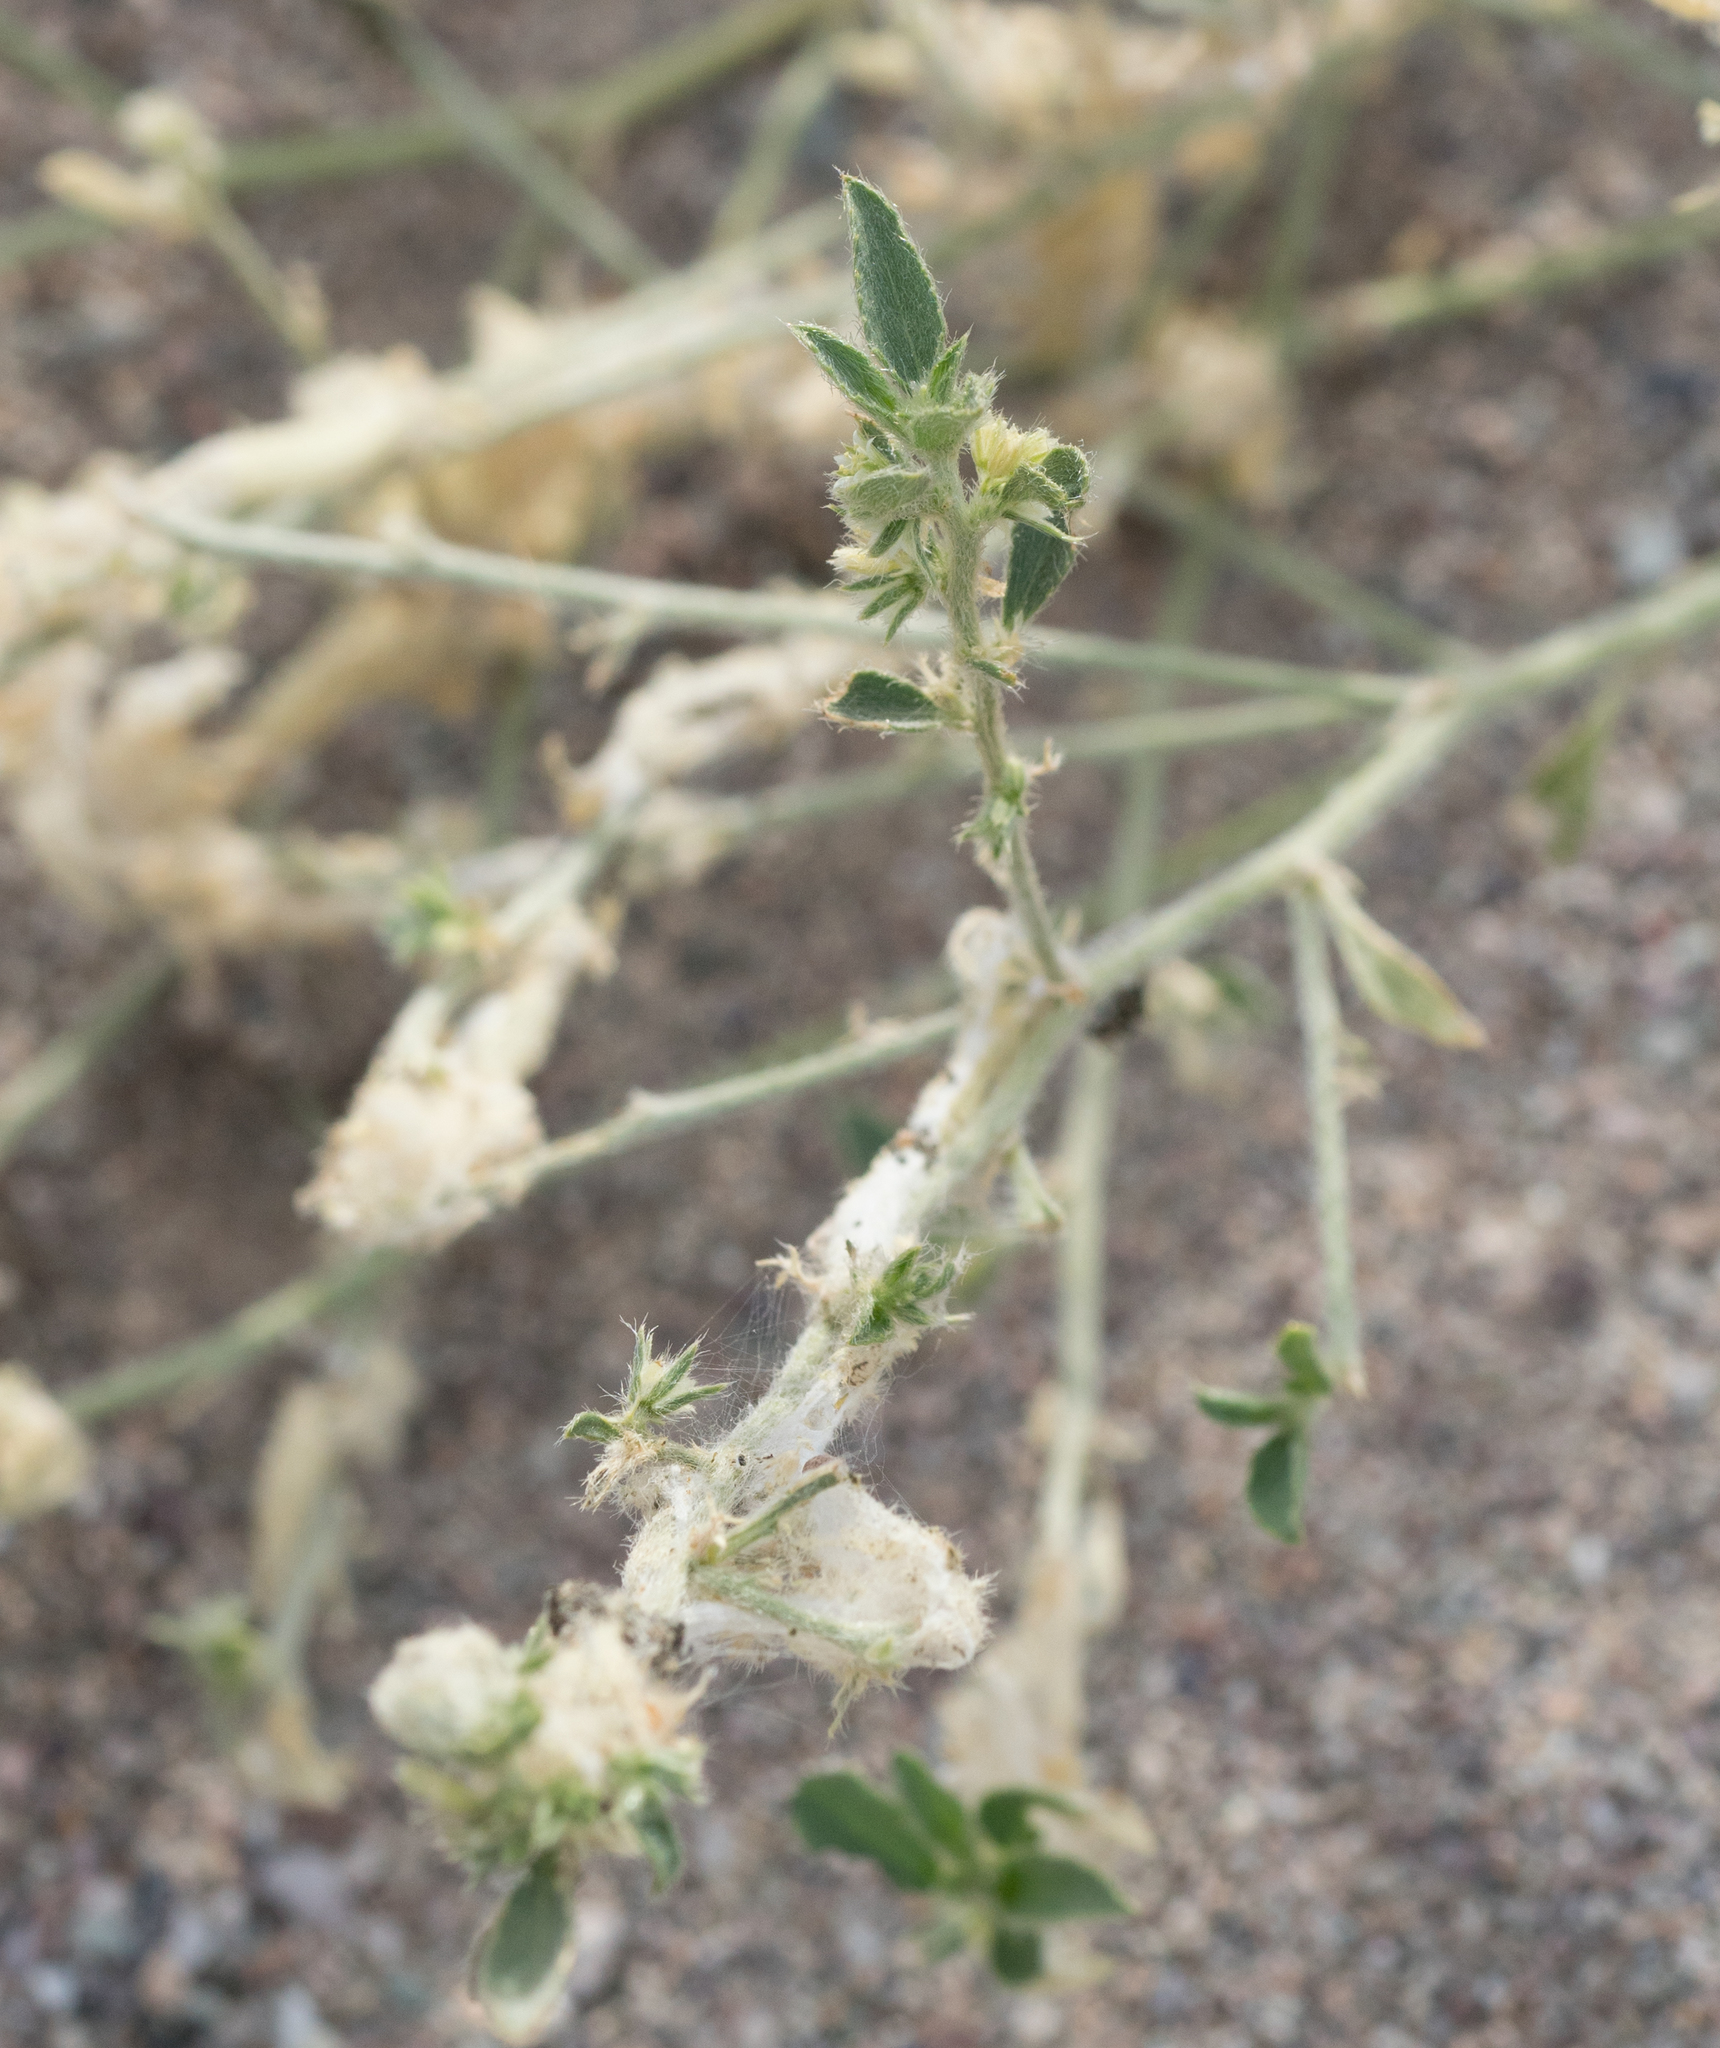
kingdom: Plantae
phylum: Tracheophyta
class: Magnoliopsida
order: Malpighiales
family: Euphorbiaceae
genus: Ditaxis
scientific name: Ditaxis serrata
